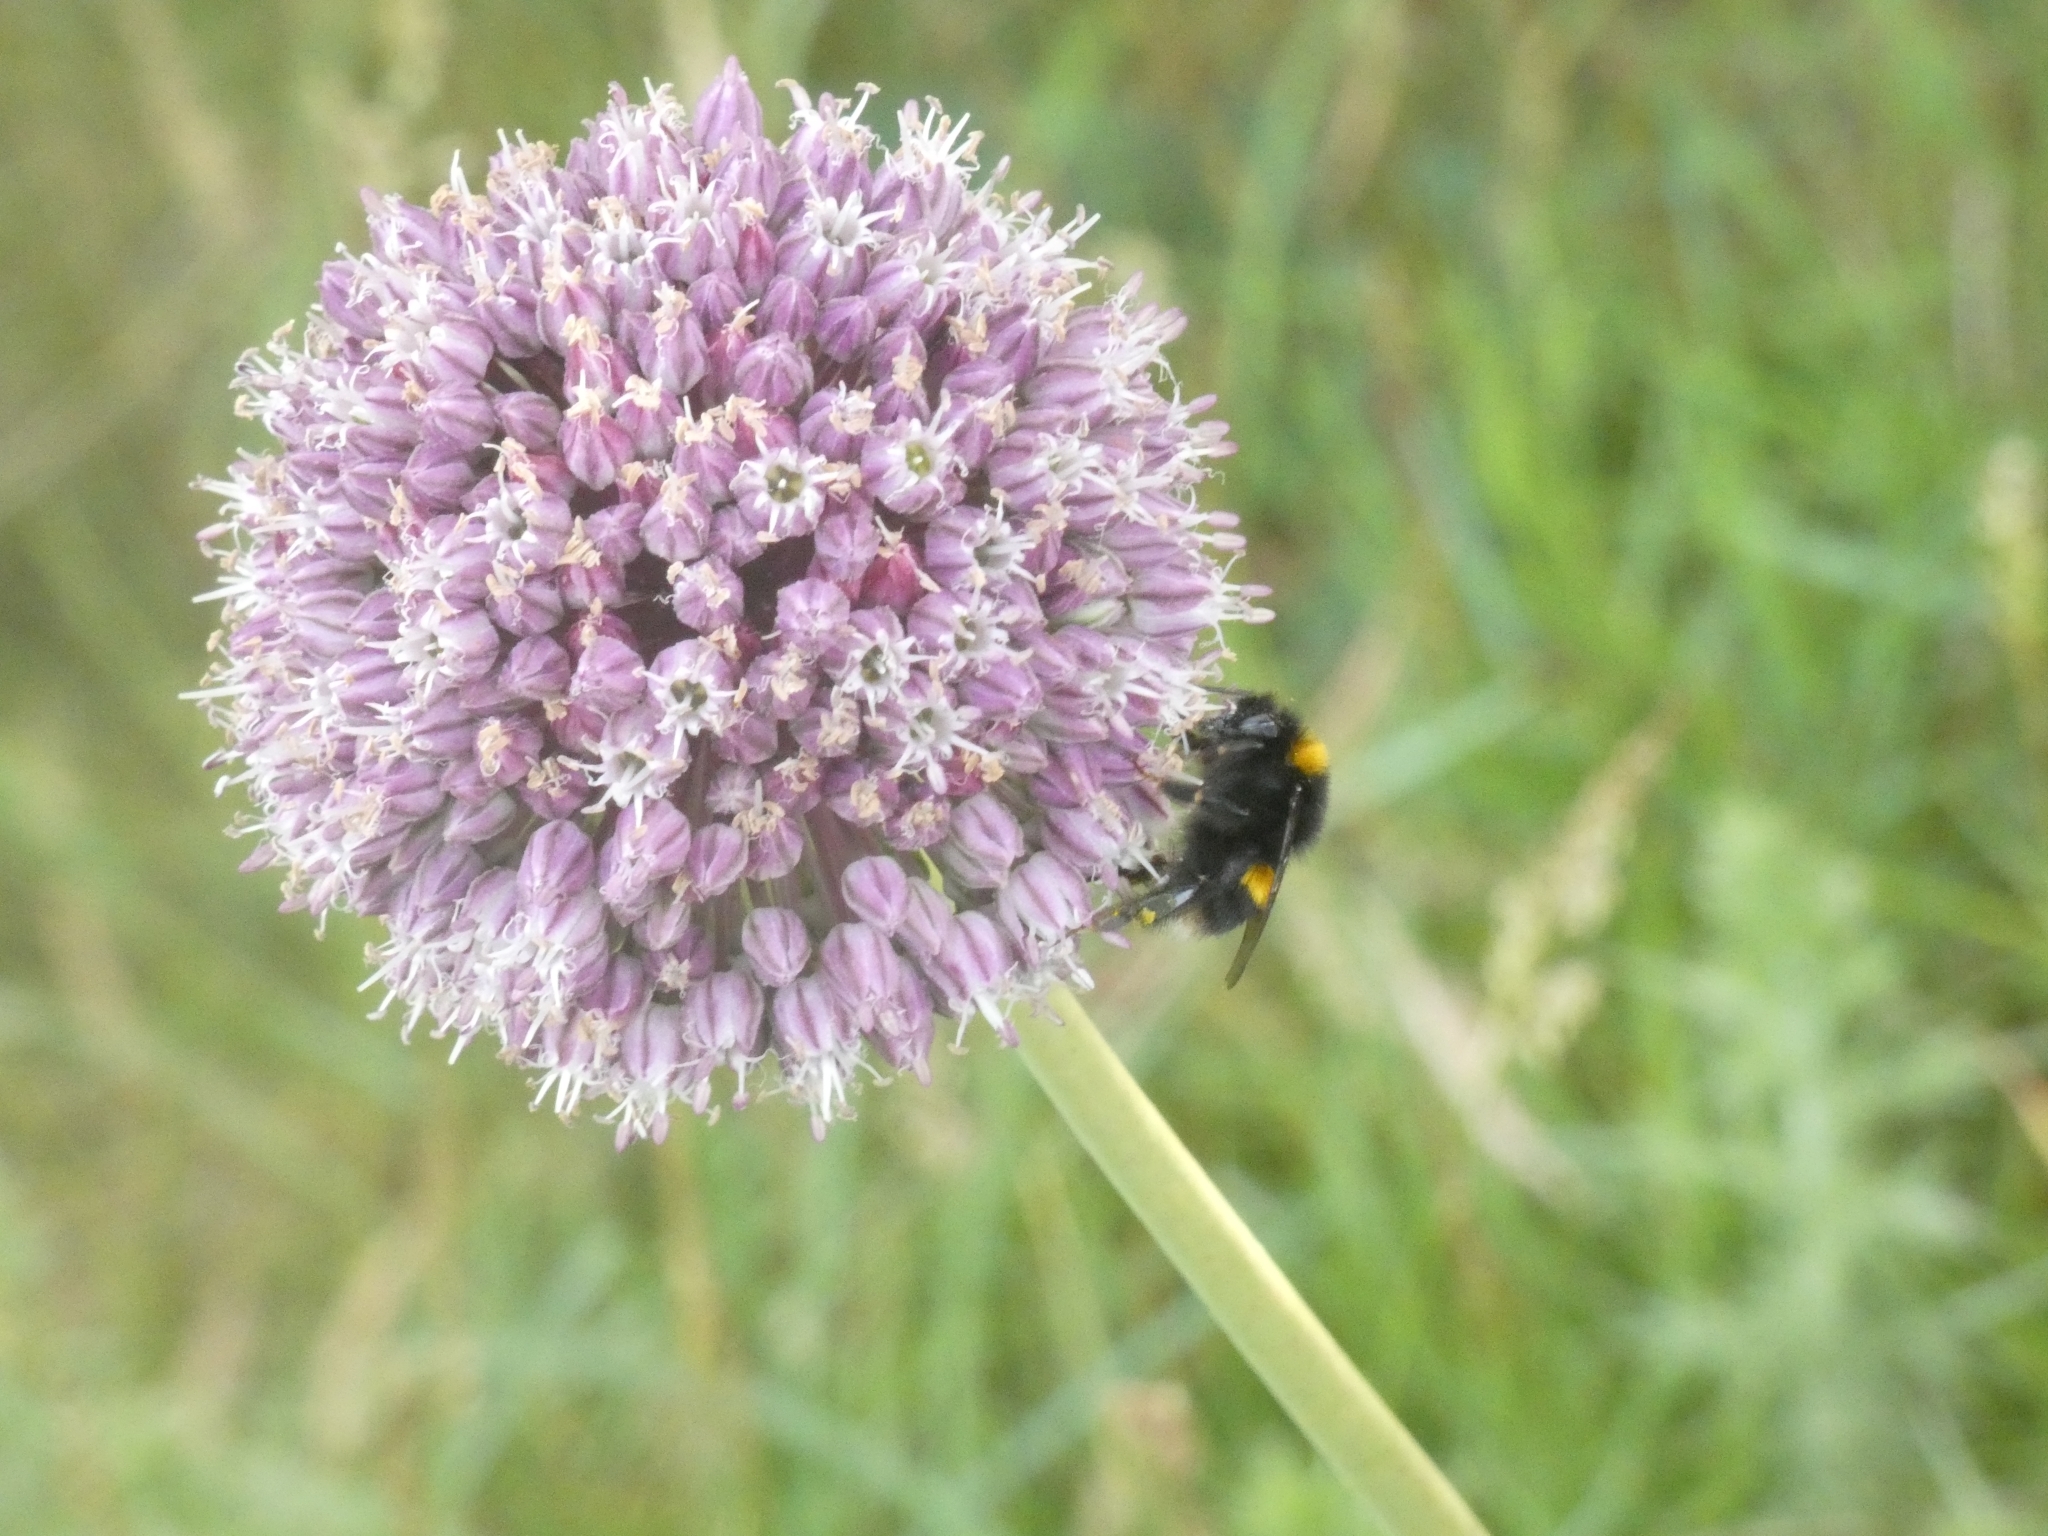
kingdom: Plantae
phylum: Tracheophyta
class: Liliopsida
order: Asparagales
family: Amaryllidaceae
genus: Allium
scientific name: Allium ampeloprasum
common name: Wild leek
